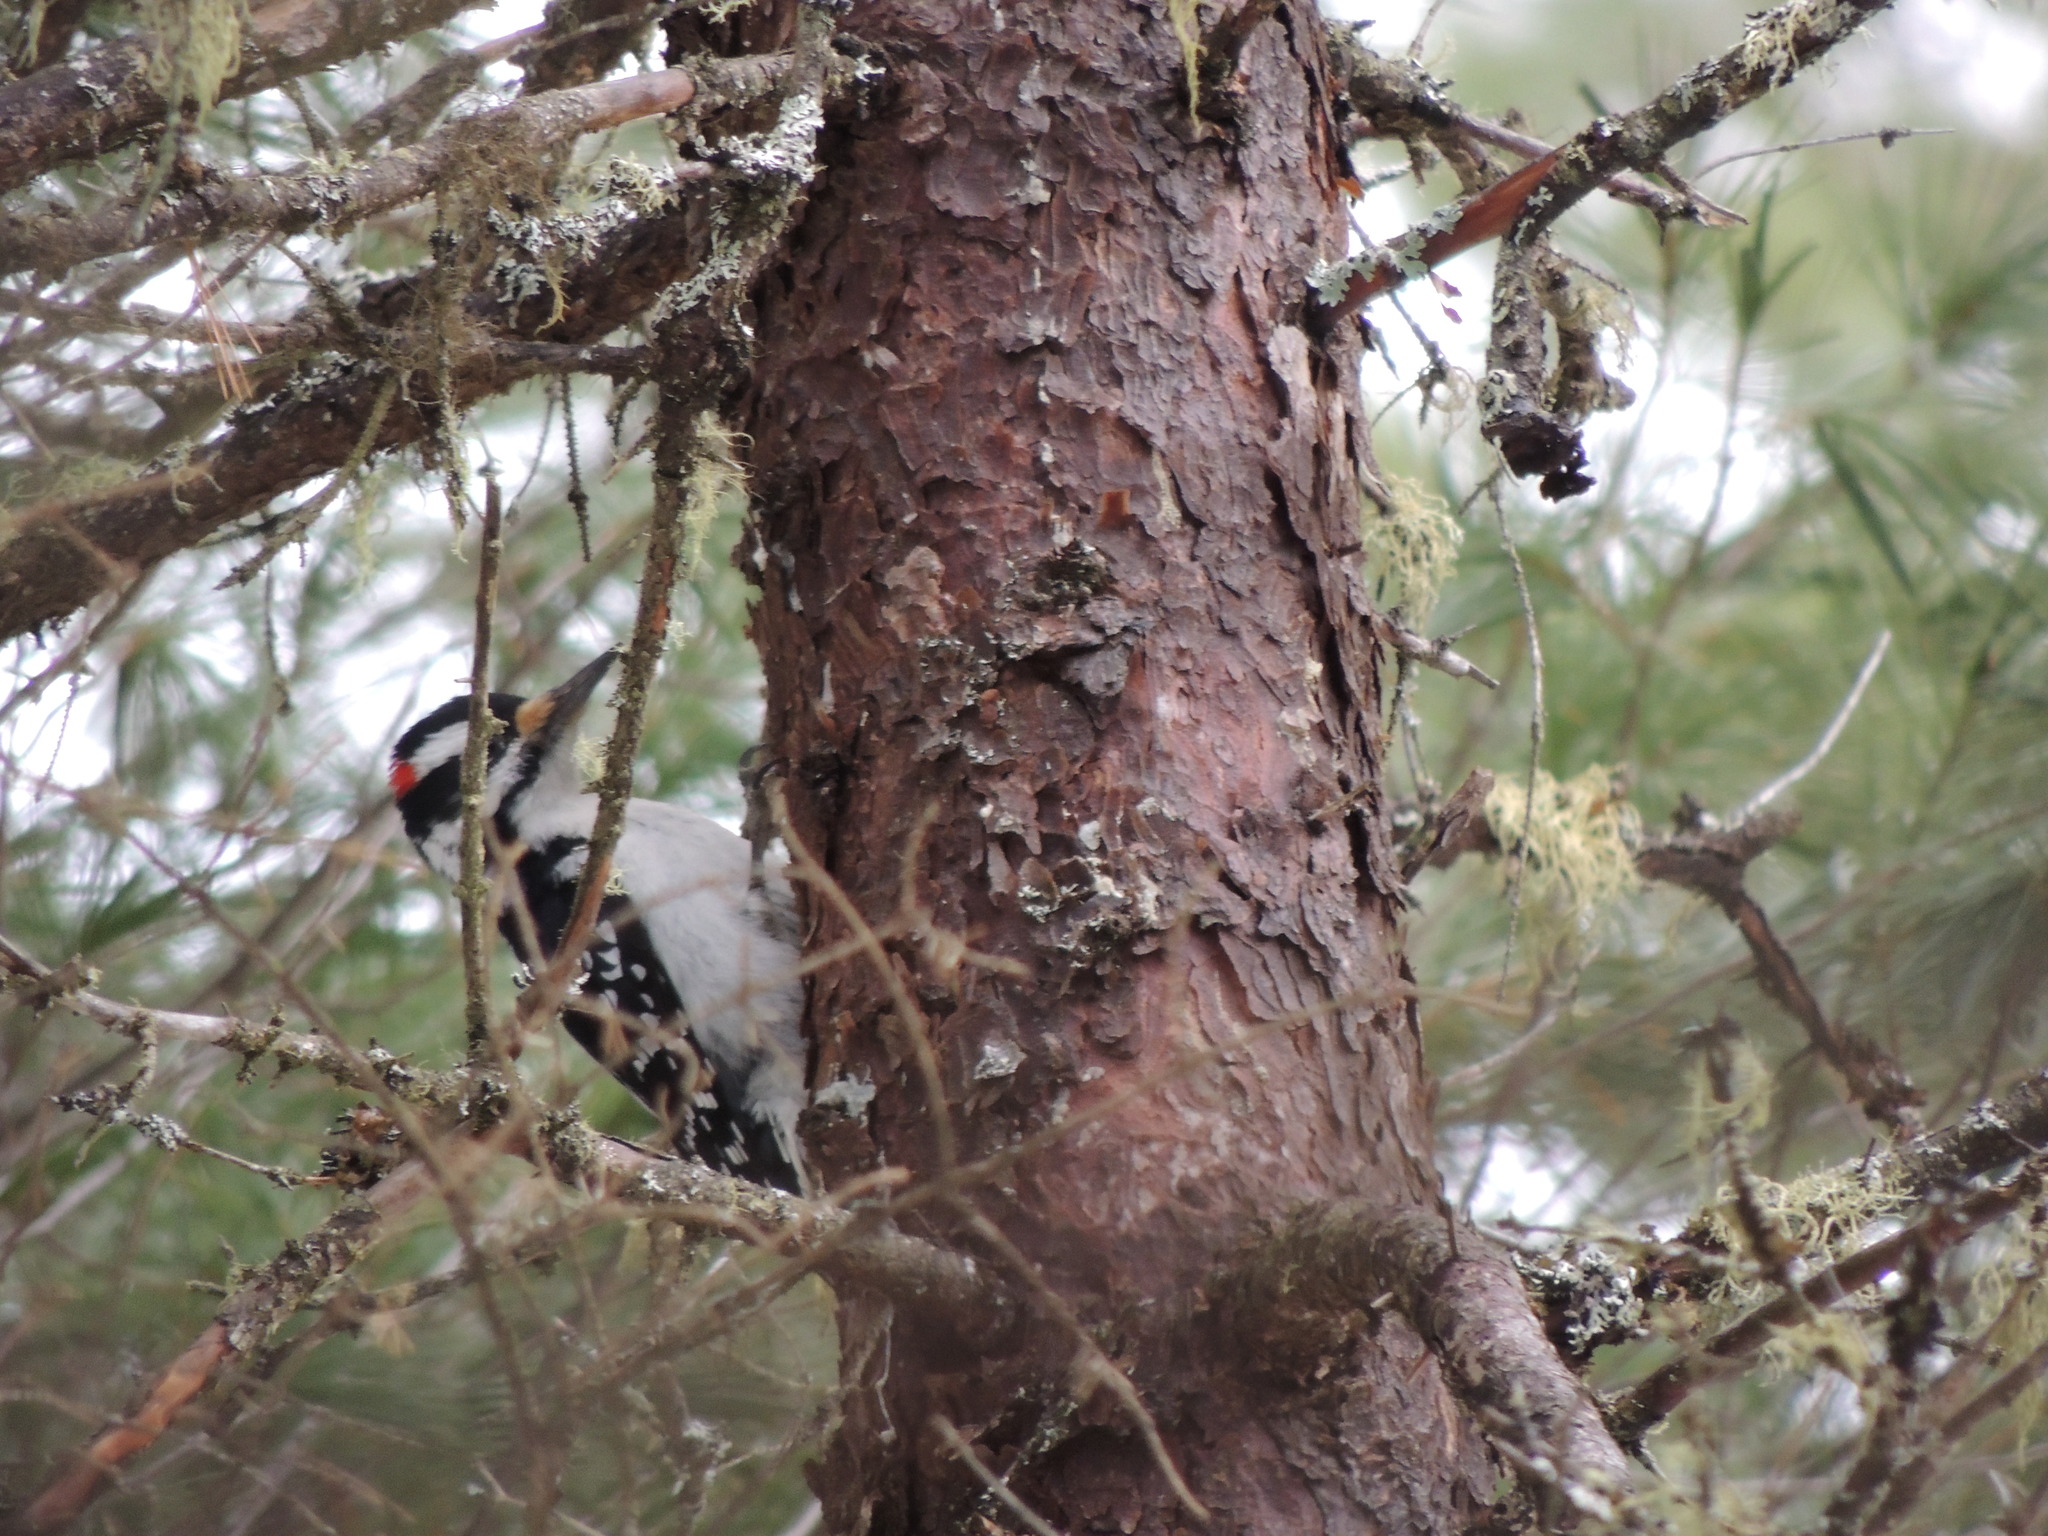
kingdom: Animalia
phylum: Chordata
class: Aves
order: Piciformes
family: Picidae
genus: Leuconotopicus
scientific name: Leuconotopicus villosus
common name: Hairy woodpecker
